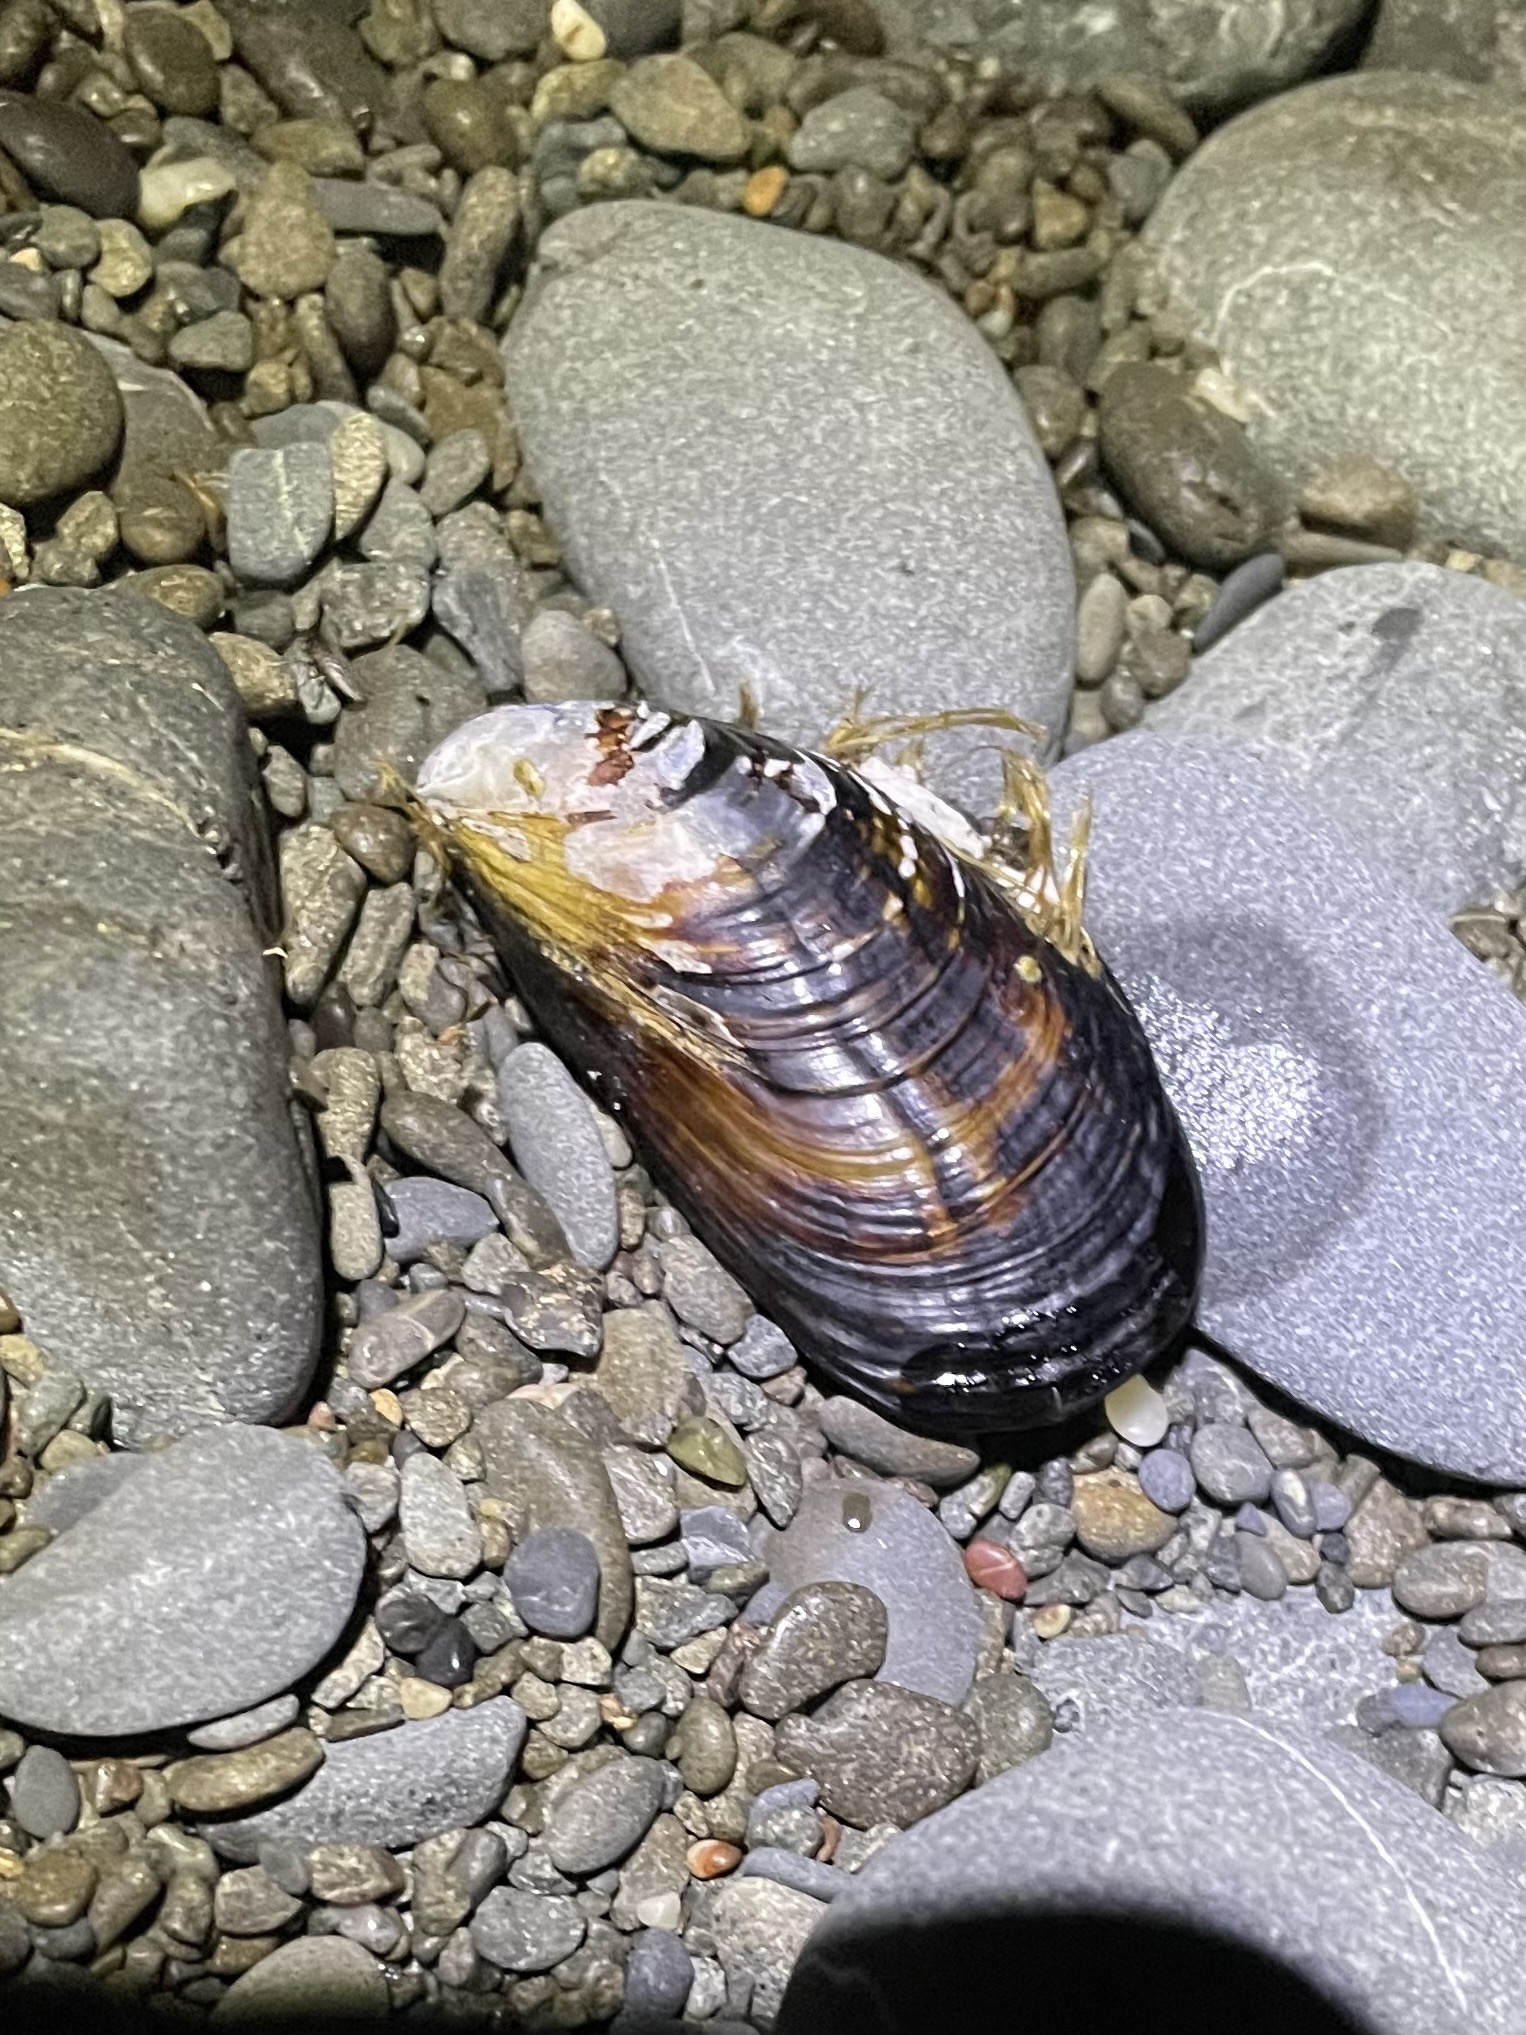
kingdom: Animalia
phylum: Mollusca
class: Bivalvia
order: Mytilida
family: Mytilidae
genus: Mytilus
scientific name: Mytilus californianus
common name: California mussel
